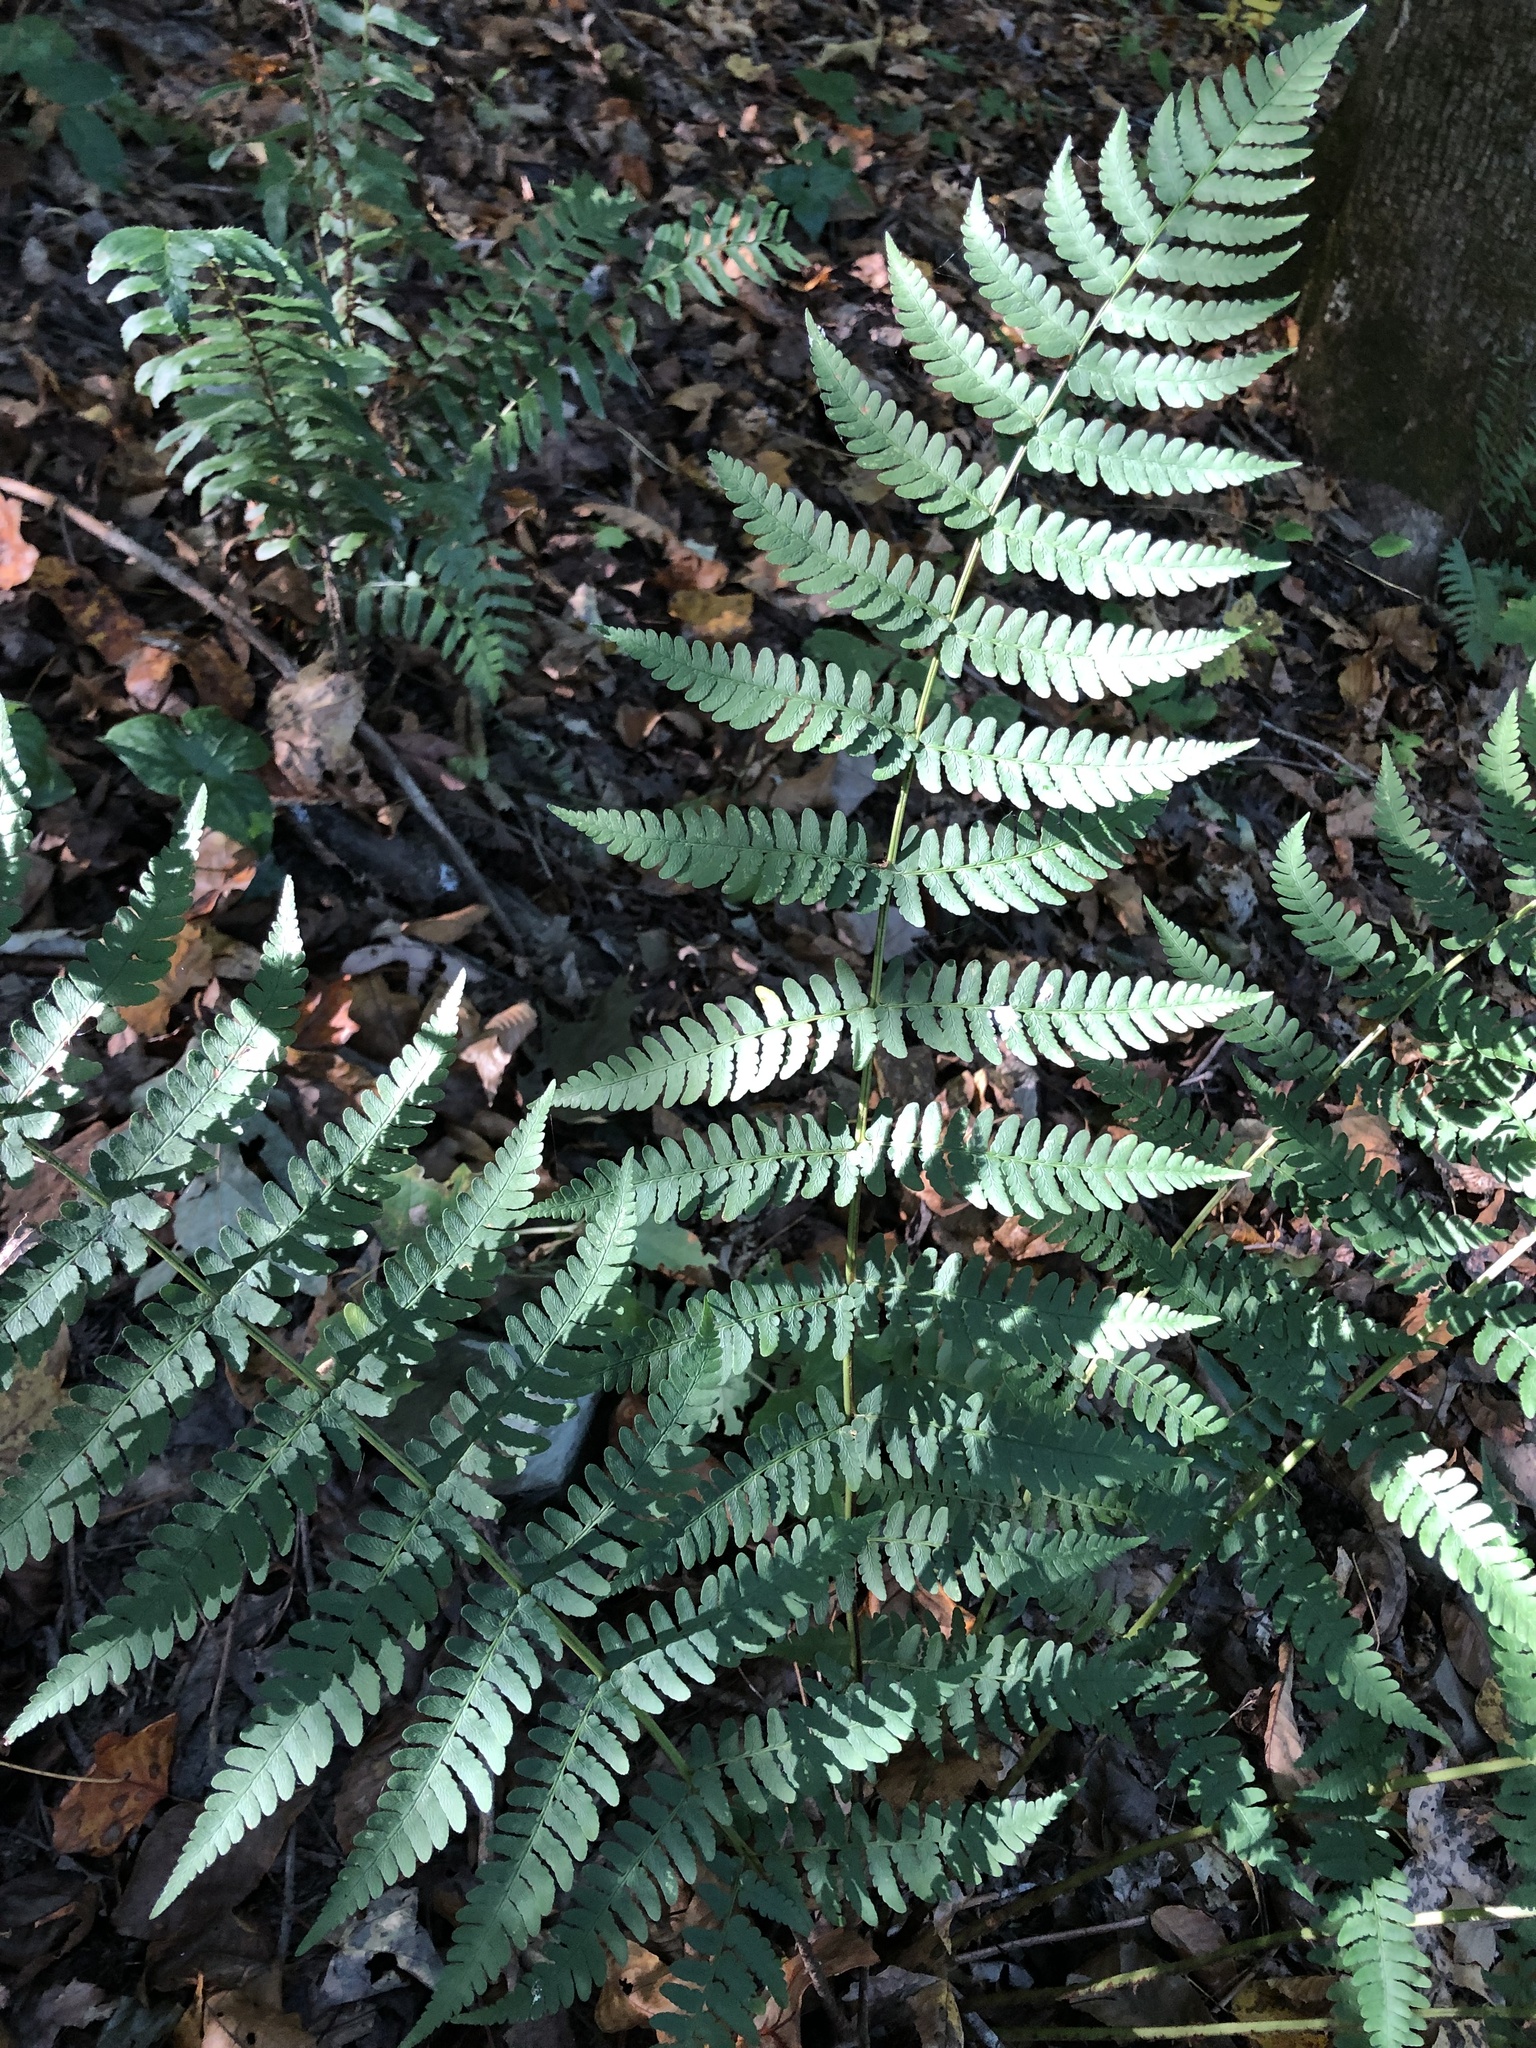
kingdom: Plantae
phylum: Tracheophyta
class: Polypodiopsida
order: Polypodiales
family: Dryopteridaceae
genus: Dryopteris
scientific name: Dryopteris marginalis
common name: Marginal wood fern
